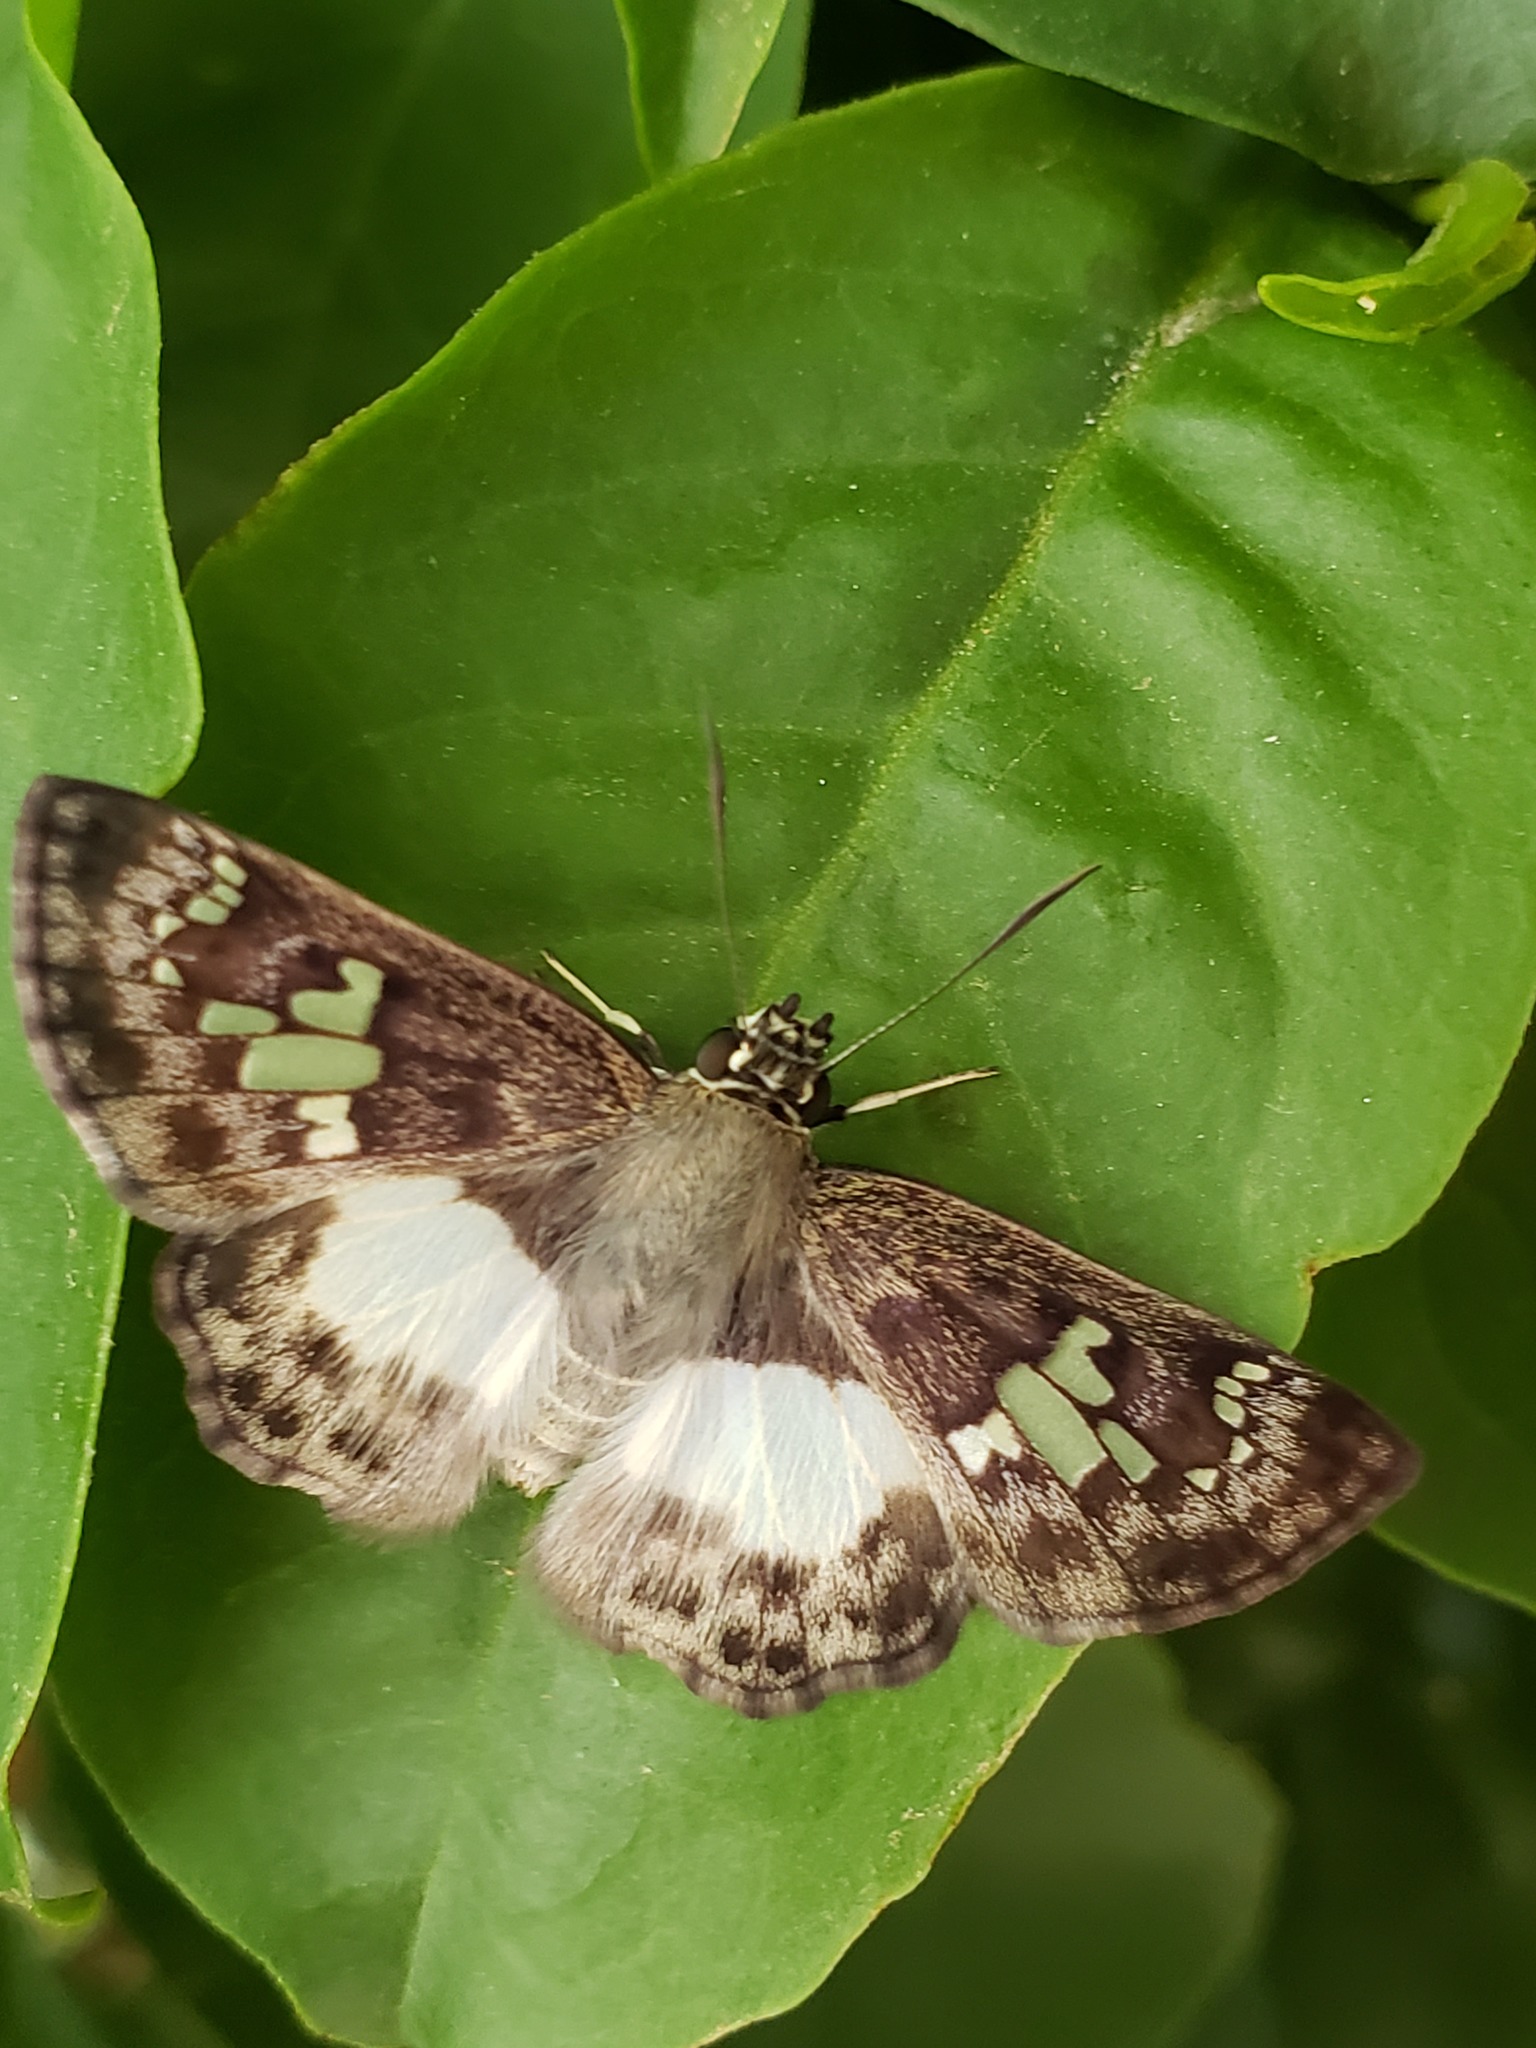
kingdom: Animalia
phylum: Arthropoda
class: Insecta
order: Lepidoptera
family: Hesperiidae
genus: Clito
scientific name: Clito sompa
